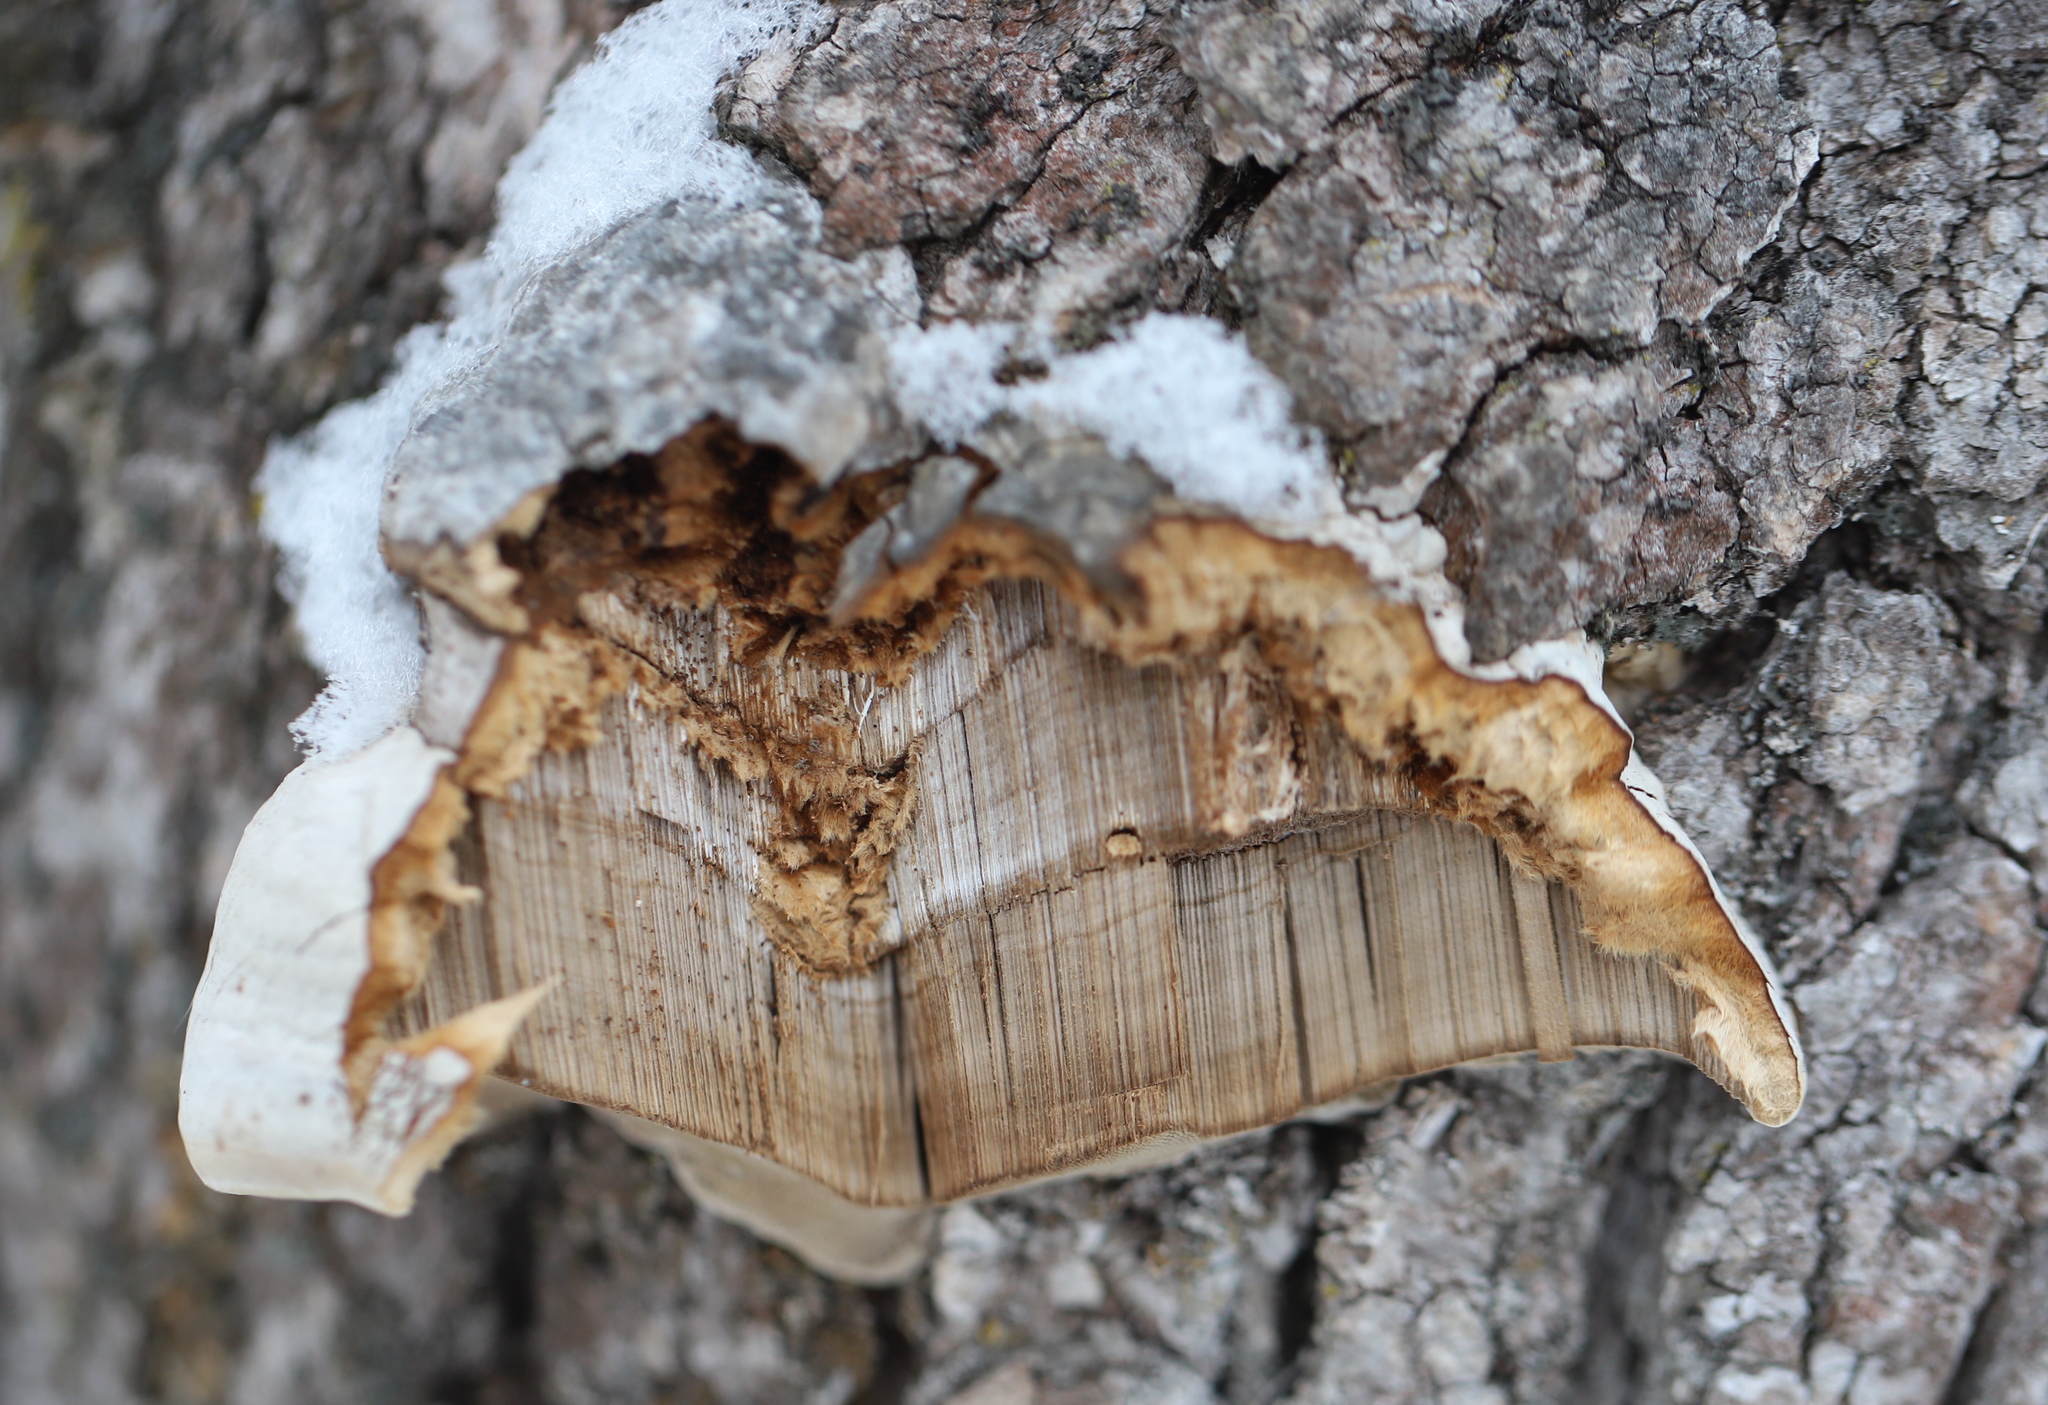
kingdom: Fungi
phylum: Basidiomycota
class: Agaricomycetes
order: Polyporales
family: Polyporaceae
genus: Fomes
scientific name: Fomes fomentarius
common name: Hoof fungus
